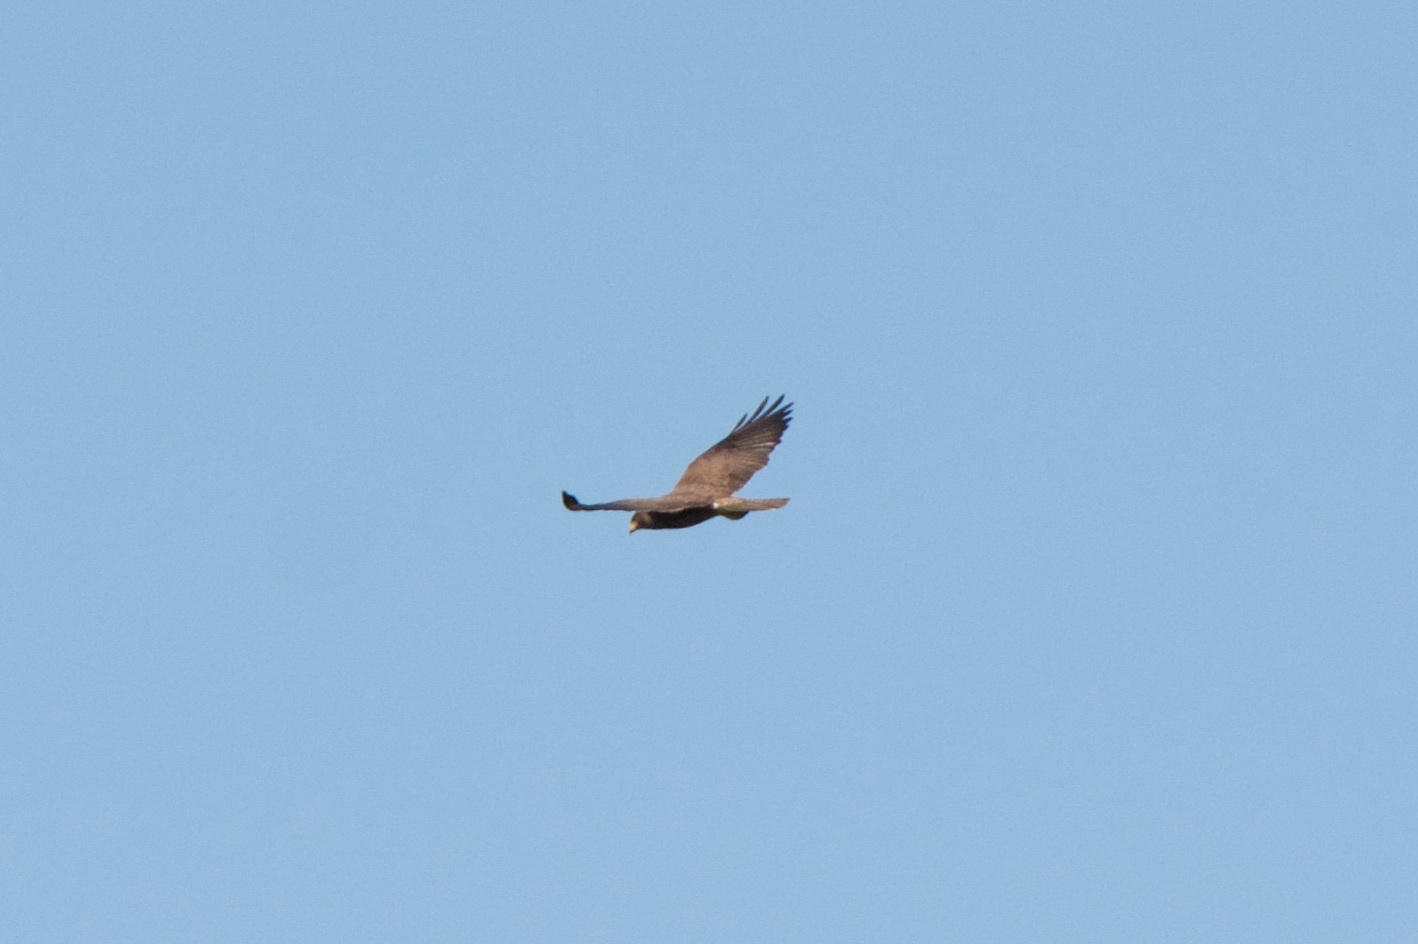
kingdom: Animalia
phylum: Chordata
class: Aves
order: Accipitriformes
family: Accipitridae
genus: Buteo
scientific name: Buteo swainsoni
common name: Swainson's hawk
